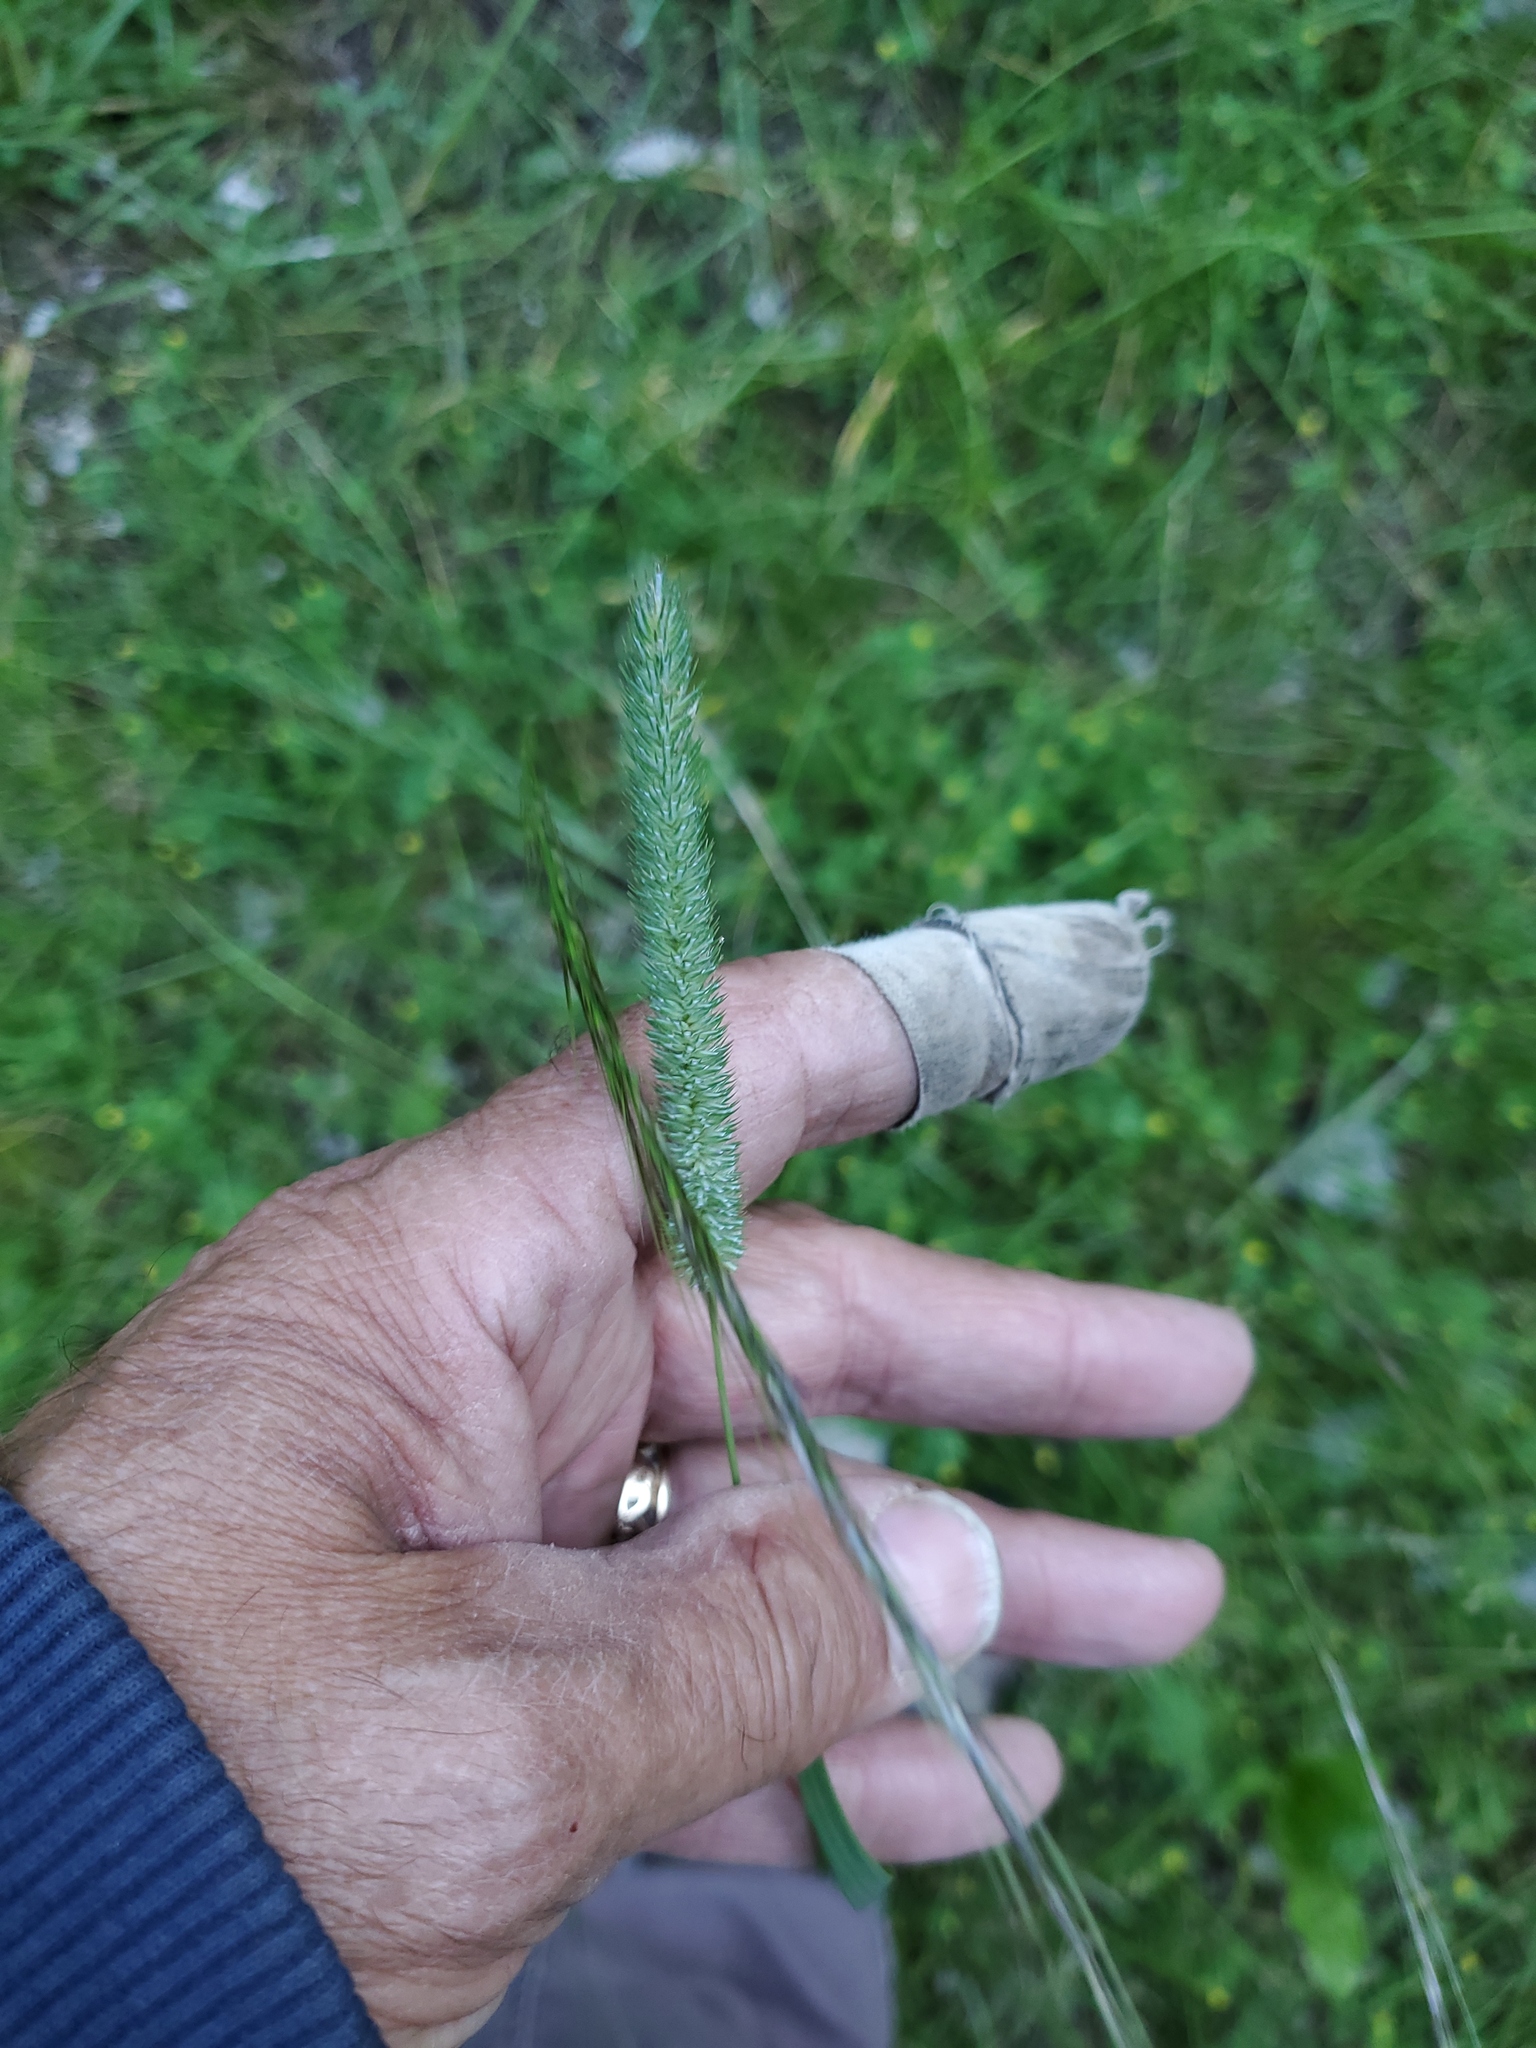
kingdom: Plantae
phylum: Tracheophyta
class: Liliopsida
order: Poales
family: Poaceae
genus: Phleum
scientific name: Phleum pratense
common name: Timothy grass
